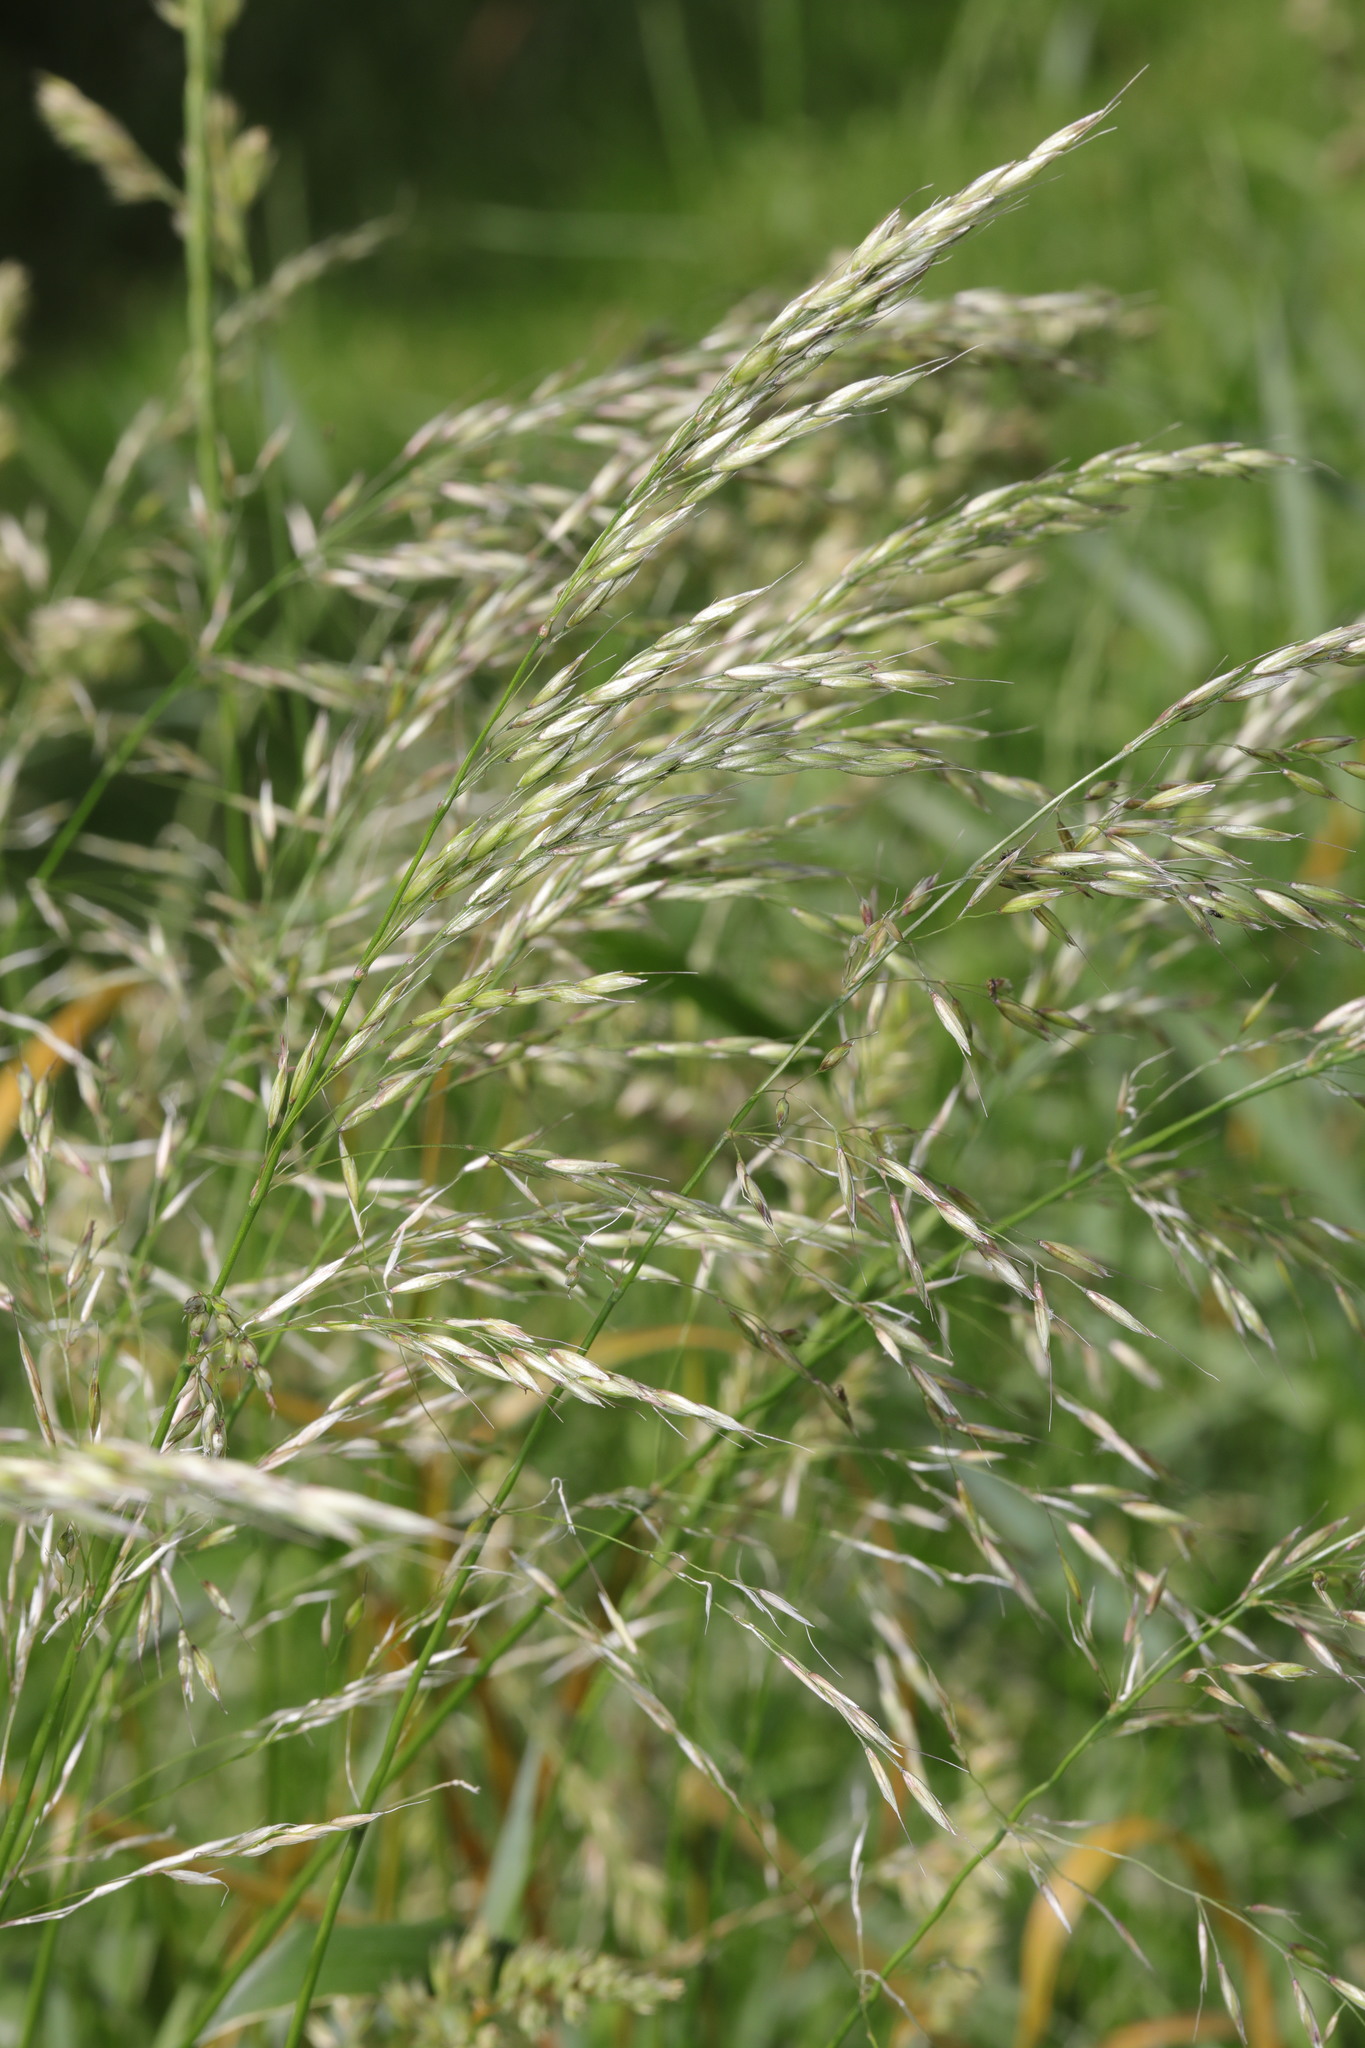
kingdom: Plantae
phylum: Tracheophyta
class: Liliopsida
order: Poales
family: Poaceae
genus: Arrhenatherum
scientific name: Arrhenatherum elatius
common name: Tall oatgrass
